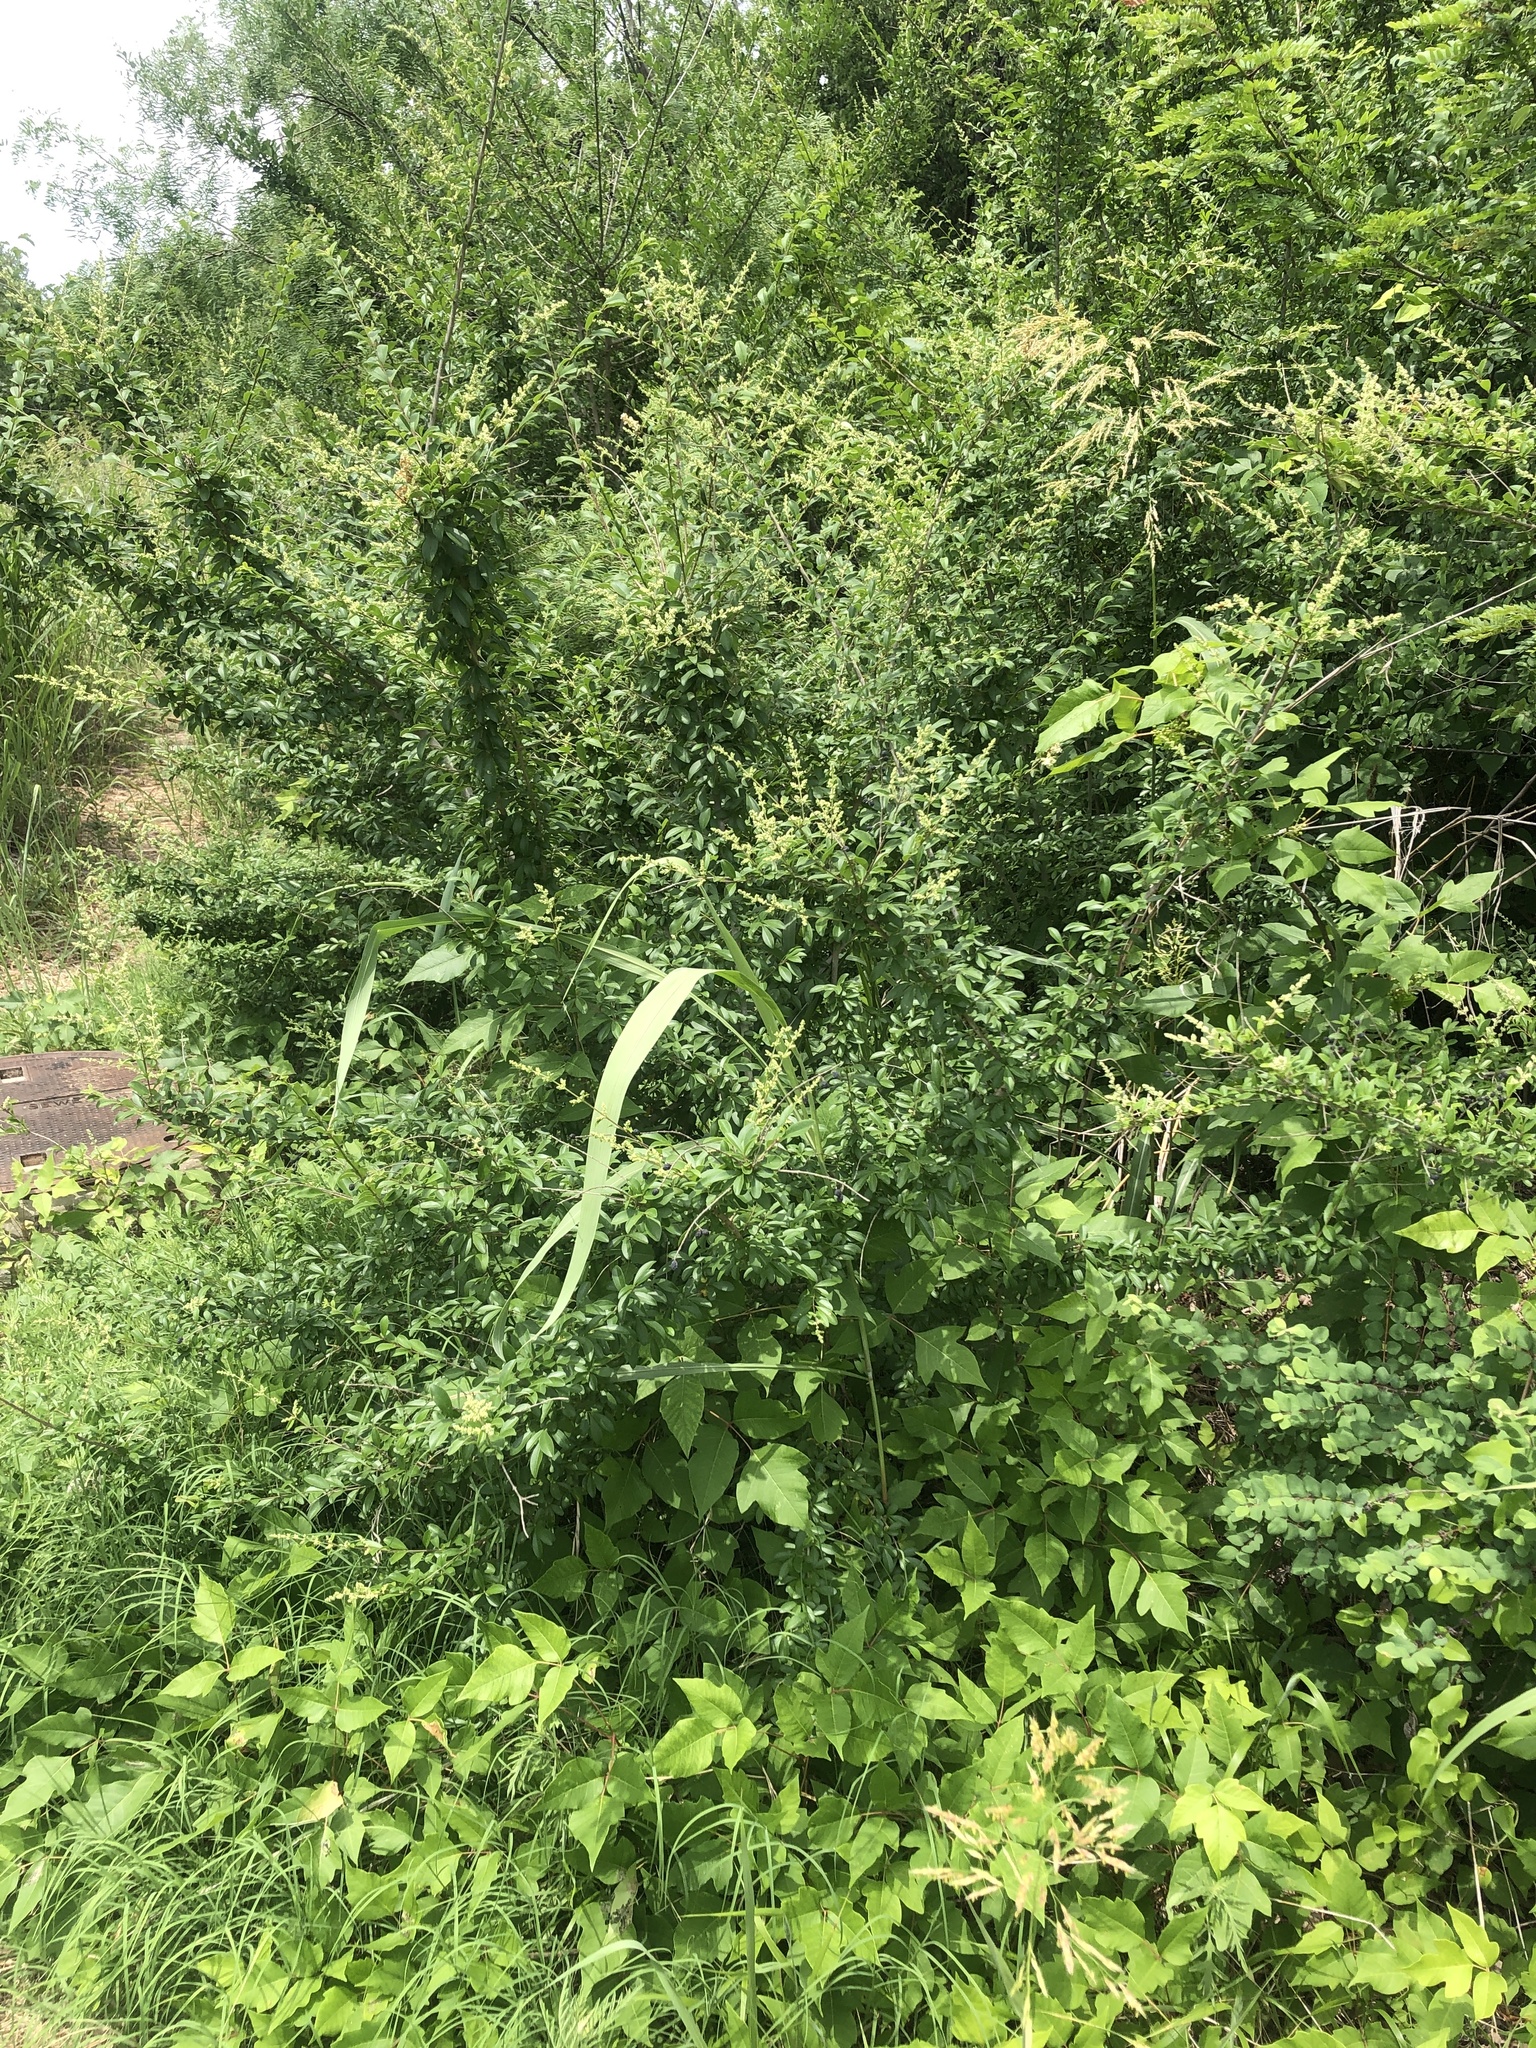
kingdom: Plantae
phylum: Tracheophyta
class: Magnoliopsida
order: Lamiales
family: Oleaceae
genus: Ligustrum
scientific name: Ligustrum quihoui
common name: Waxyleaf privet
